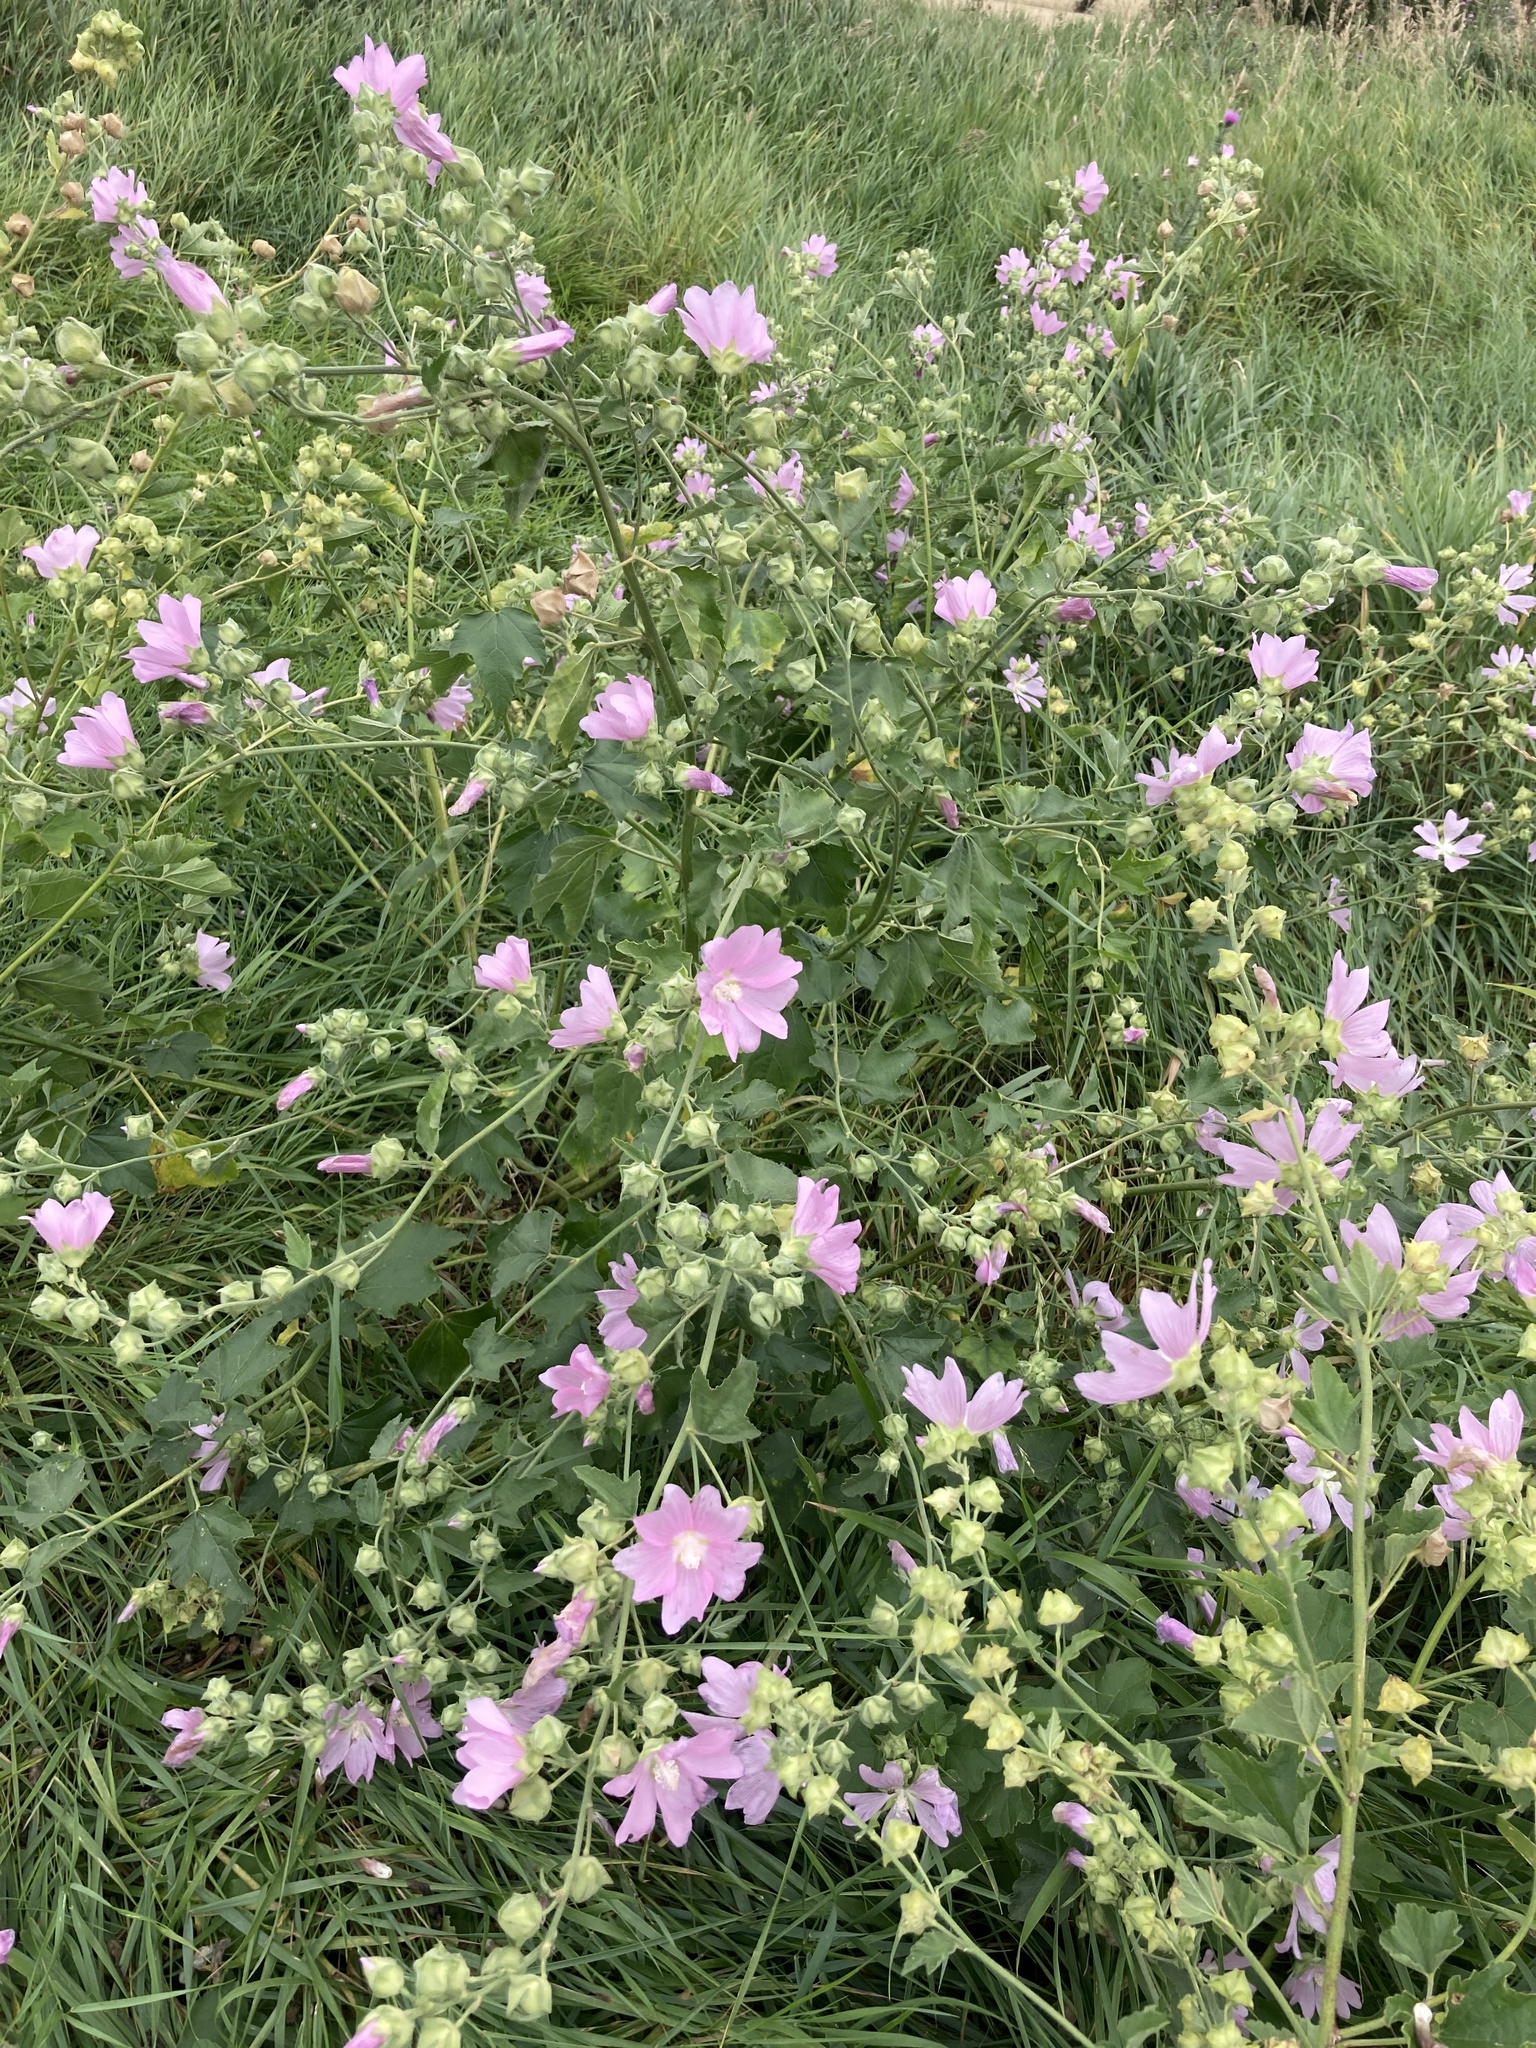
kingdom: Plantae
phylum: Tracheophyta
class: Magnoliopsida
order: Malvales
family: Malvaceae
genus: Malva
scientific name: Malva thuringiaca
